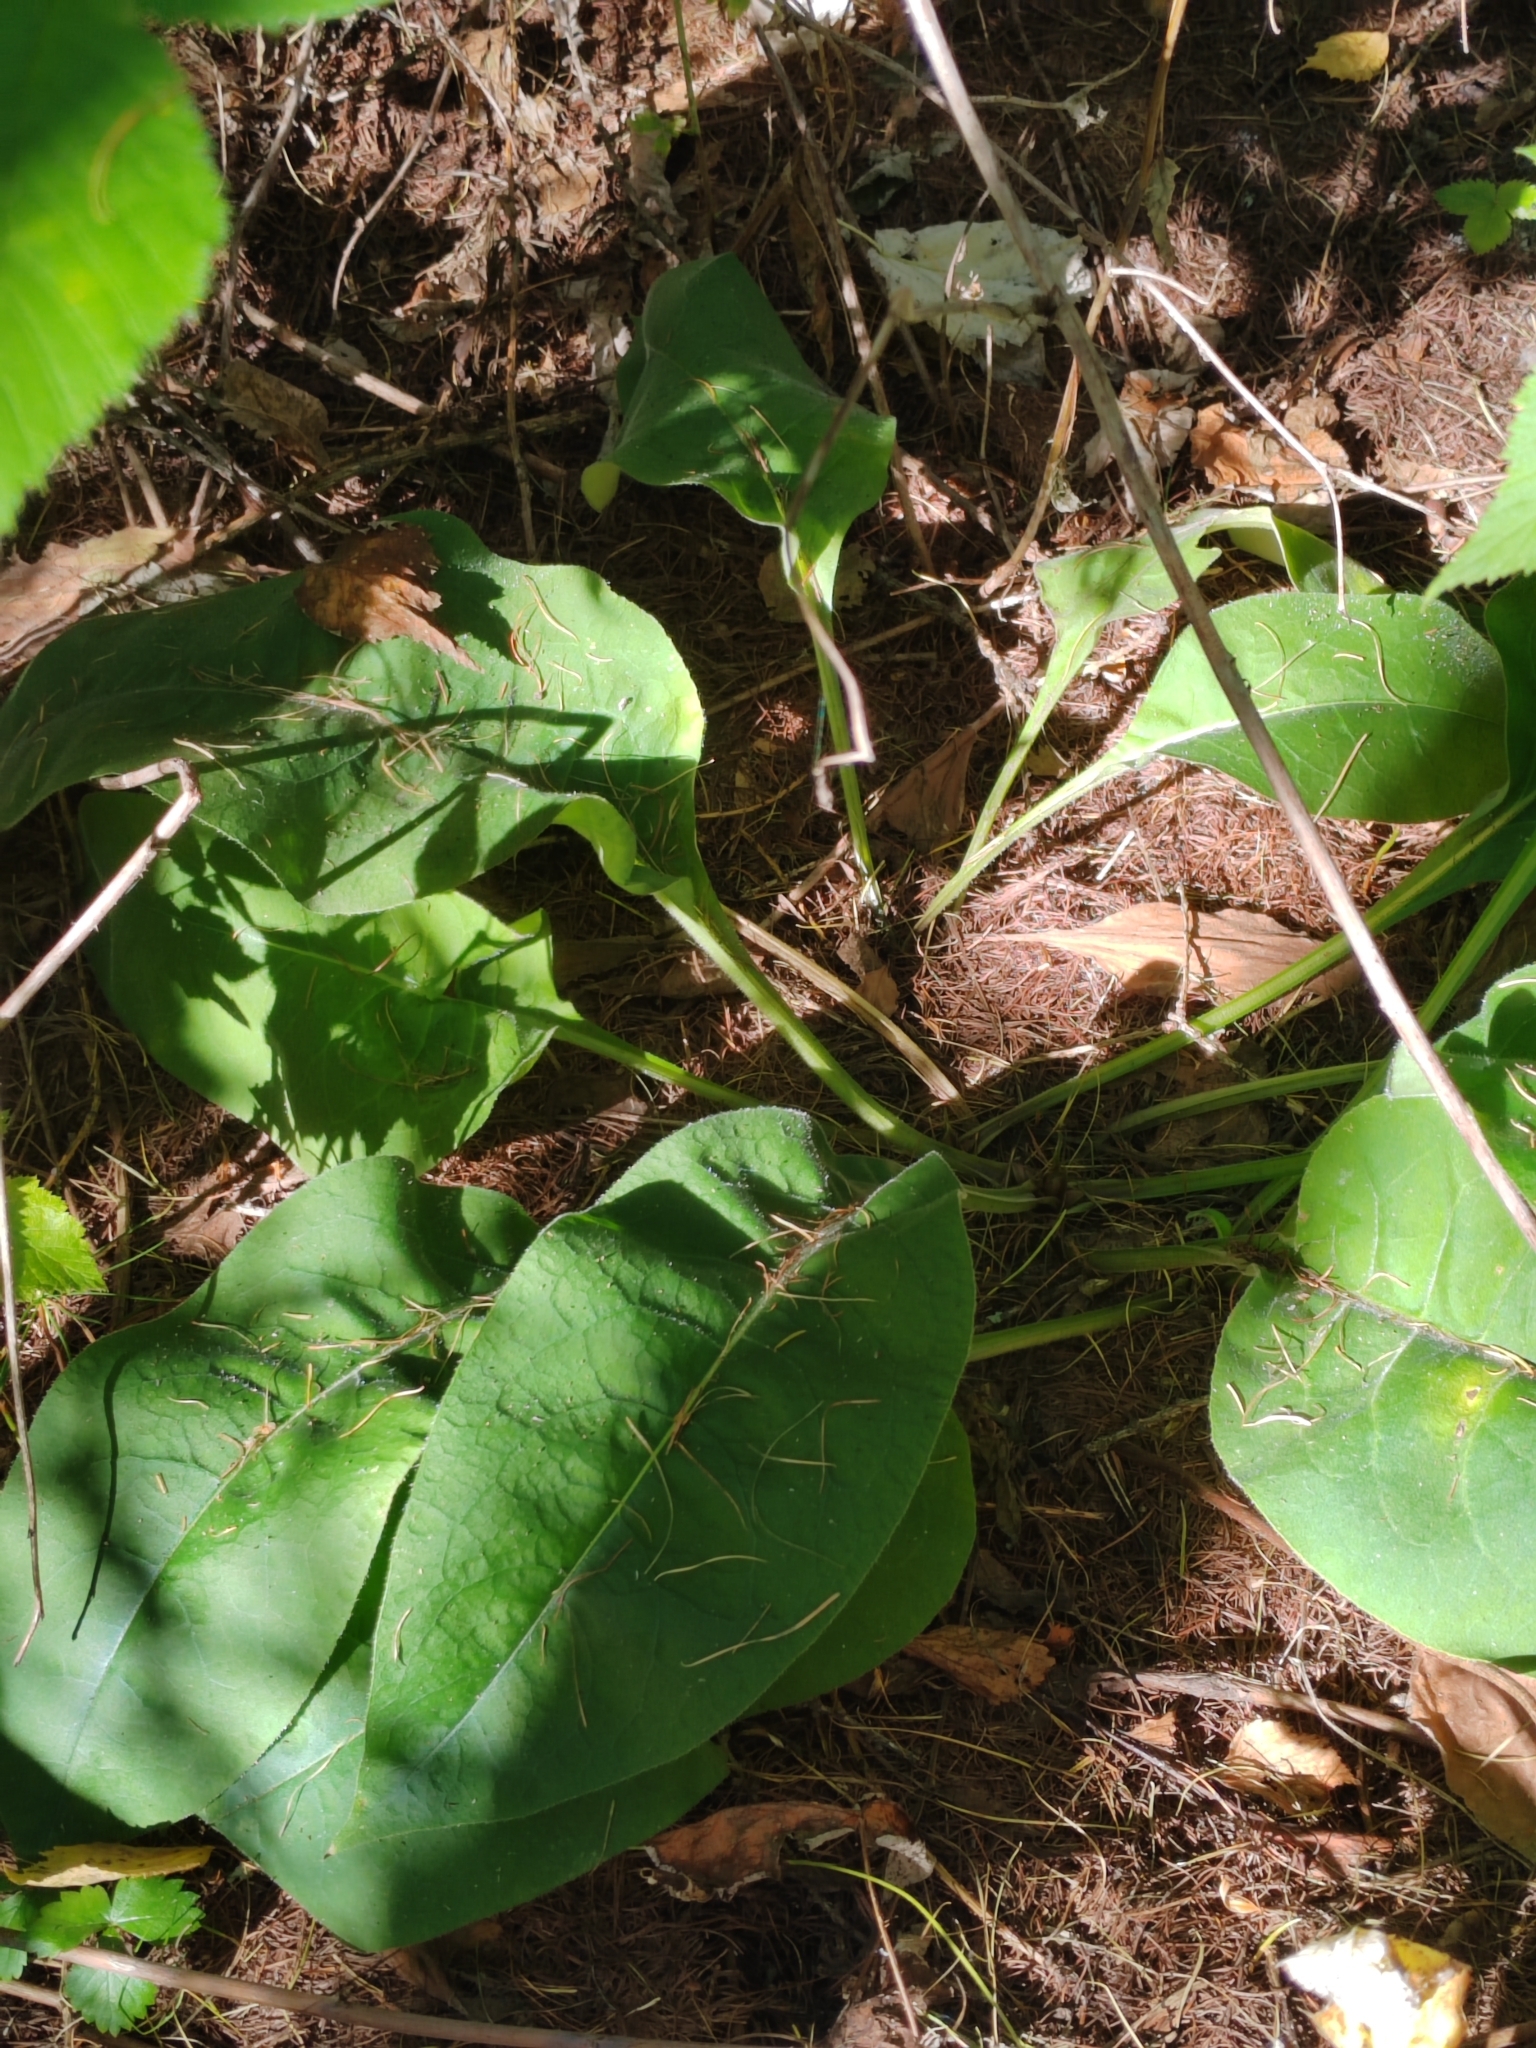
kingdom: Plantae
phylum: Tracheophyta
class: Magnoliopsida
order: Boraginales
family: Boraginaceae
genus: Pulmonaria
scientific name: Pulmonaria mollis
